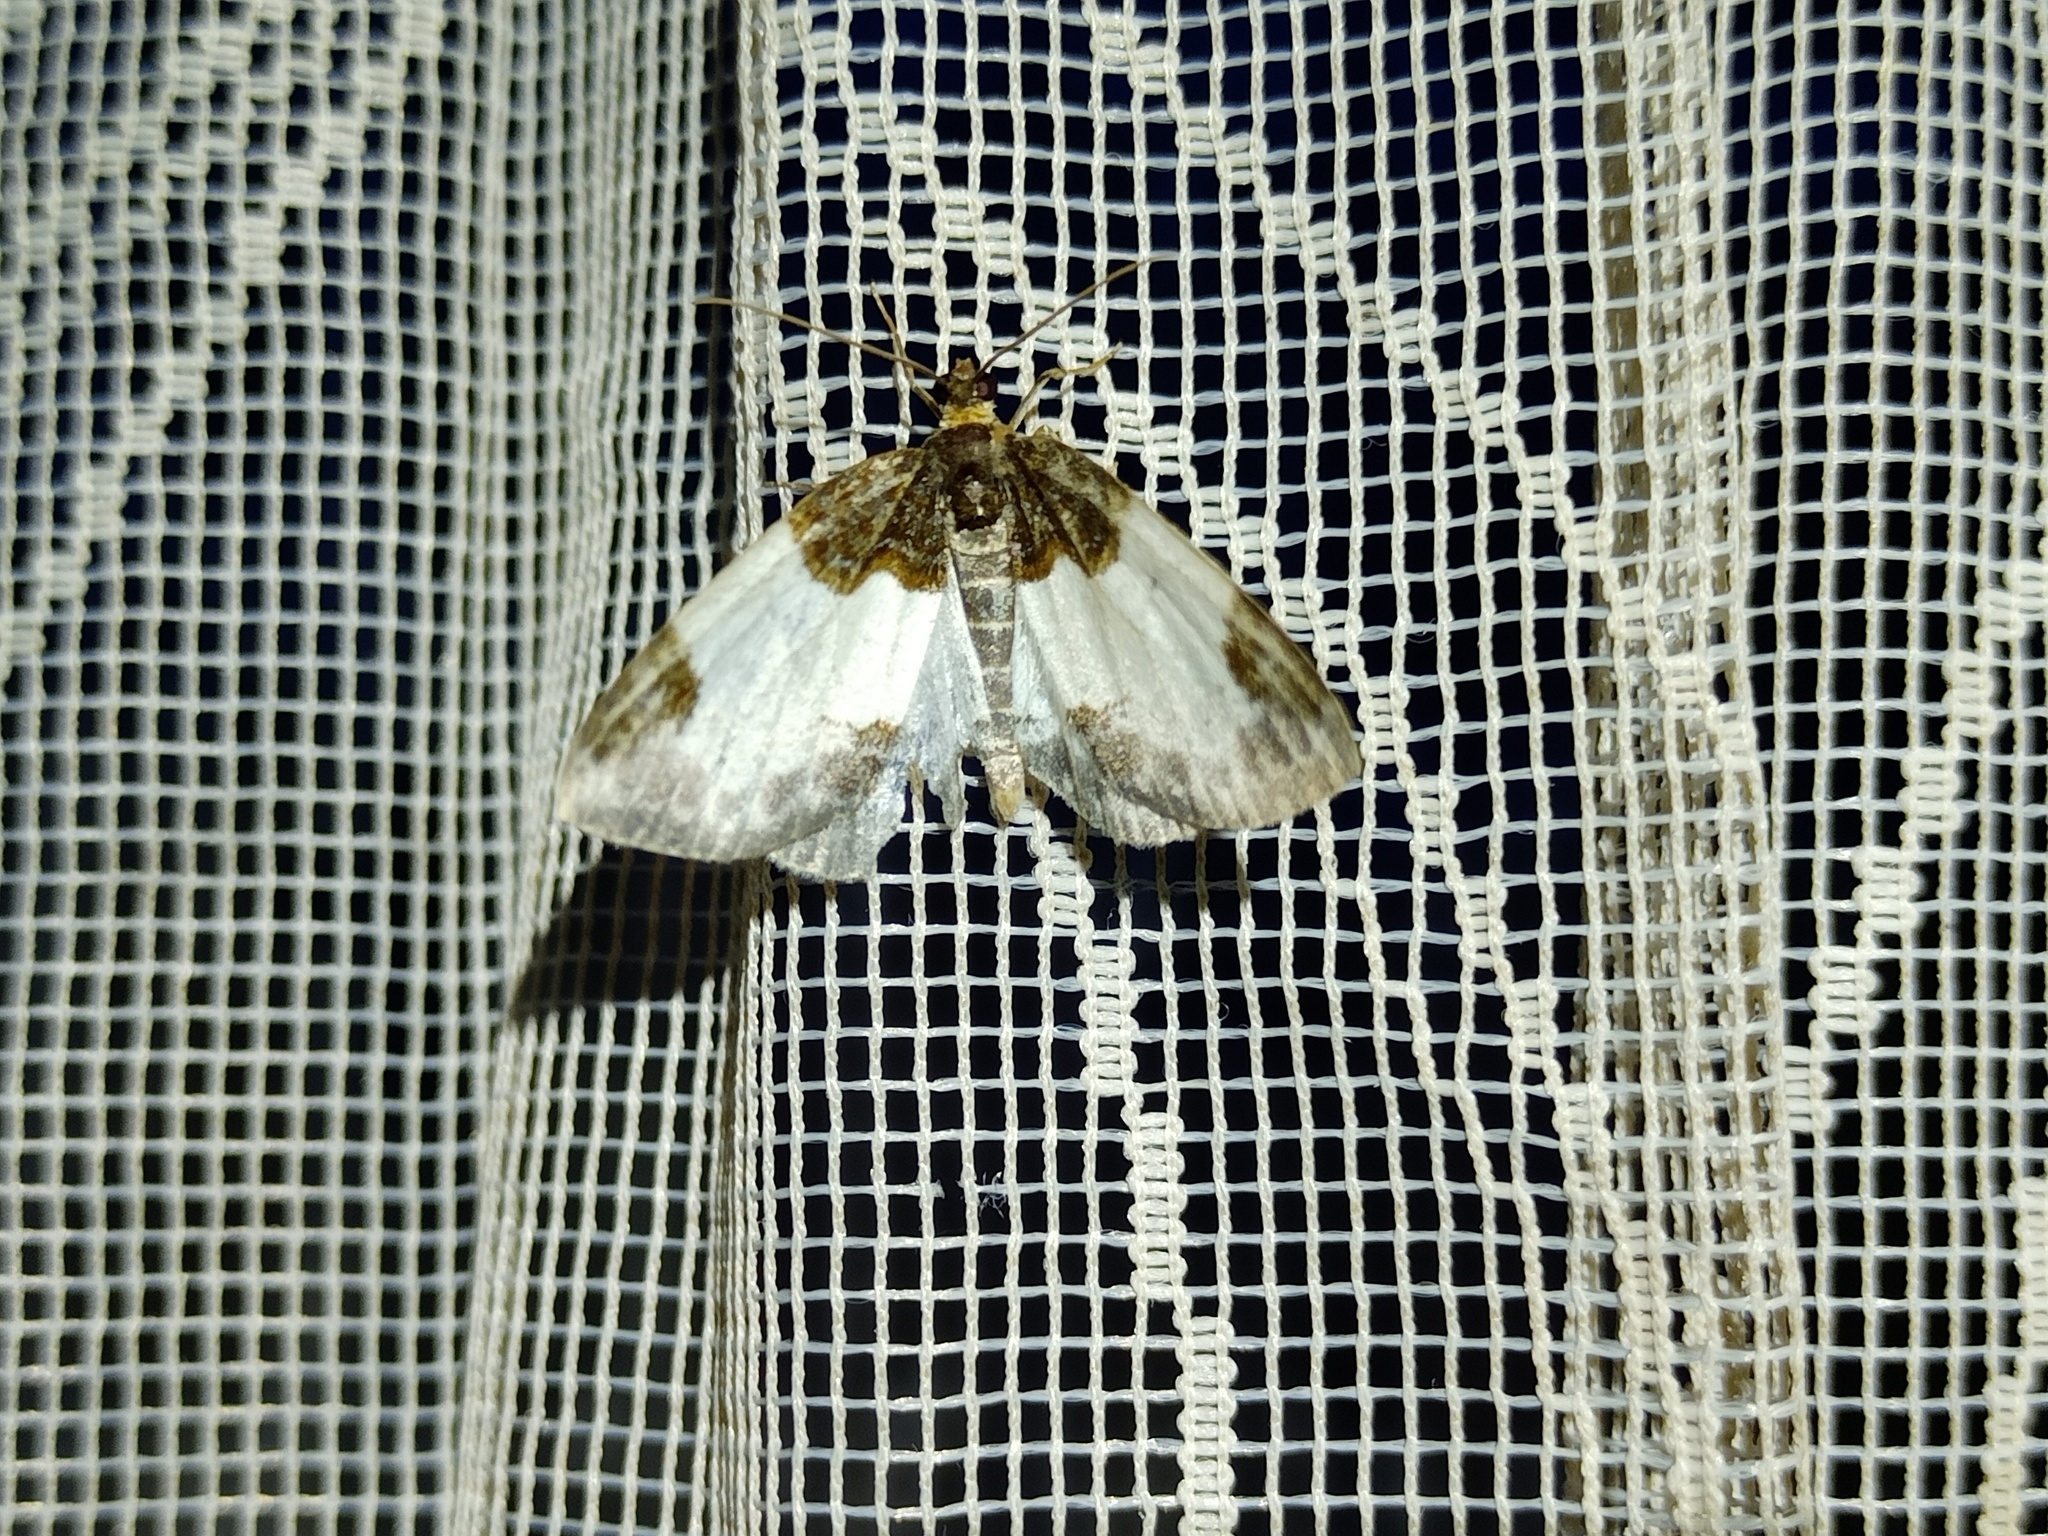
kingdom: Animalia
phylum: Arthropoda
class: Insecta
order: Lepidoptera
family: Geometridae
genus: Mesoleuca
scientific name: Mesoleuca albicillata
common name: Beautiful carpet
